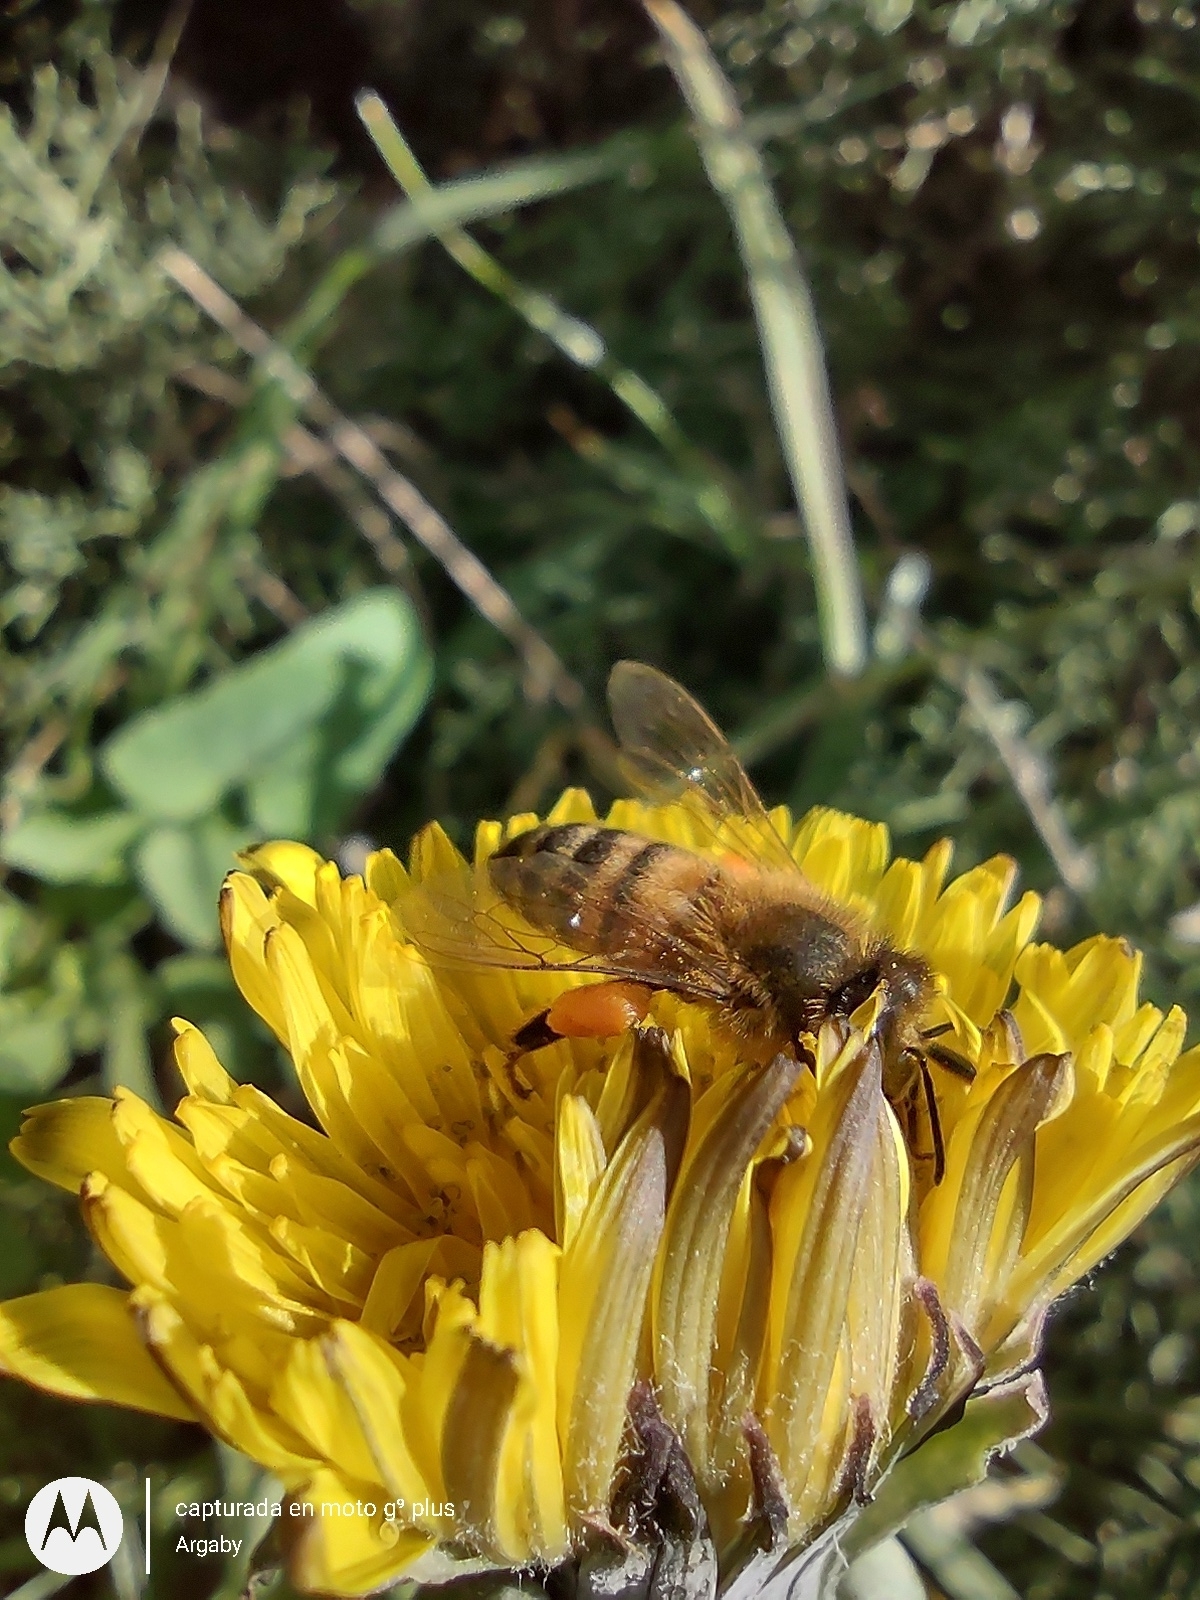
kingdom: Animalia
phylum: Arthropoda
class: Insecta
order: Hymenoptera
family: Apidae
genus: Apis
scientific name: Apis mellifera
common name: Honey bee
